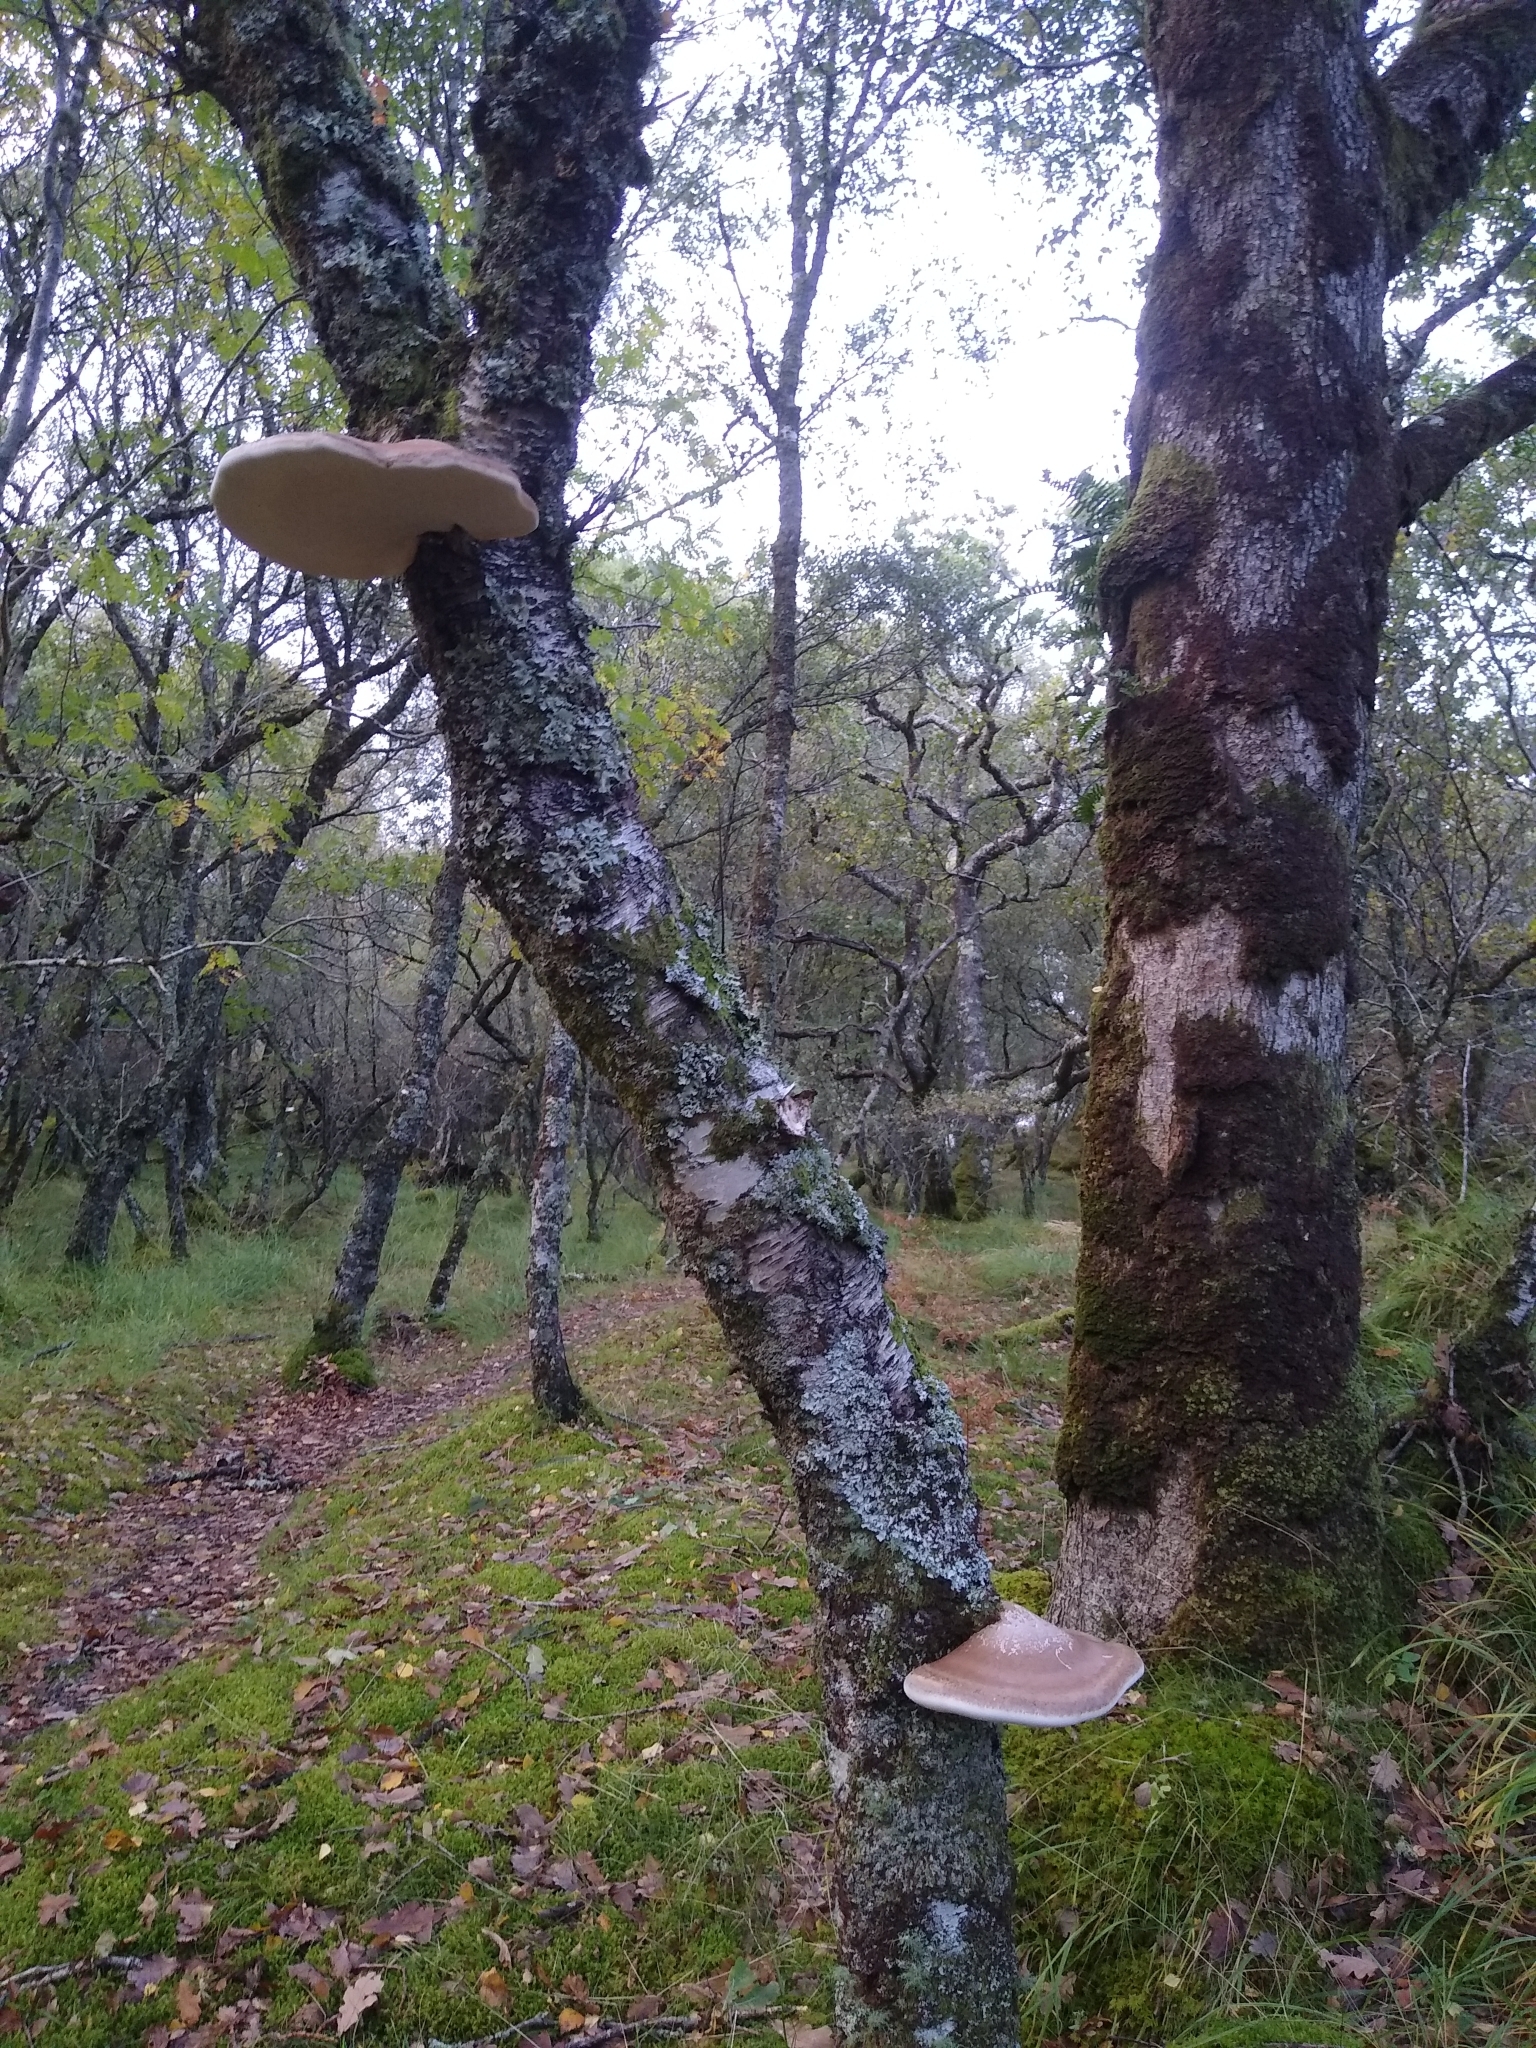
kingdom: Fungi
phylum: Basidiomycota
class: Agaricomycetes
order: Polyporales
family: Fomitopsidaceae
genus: Fomitopsis
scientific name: Fomitopsis betulina
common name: Birch polypore
